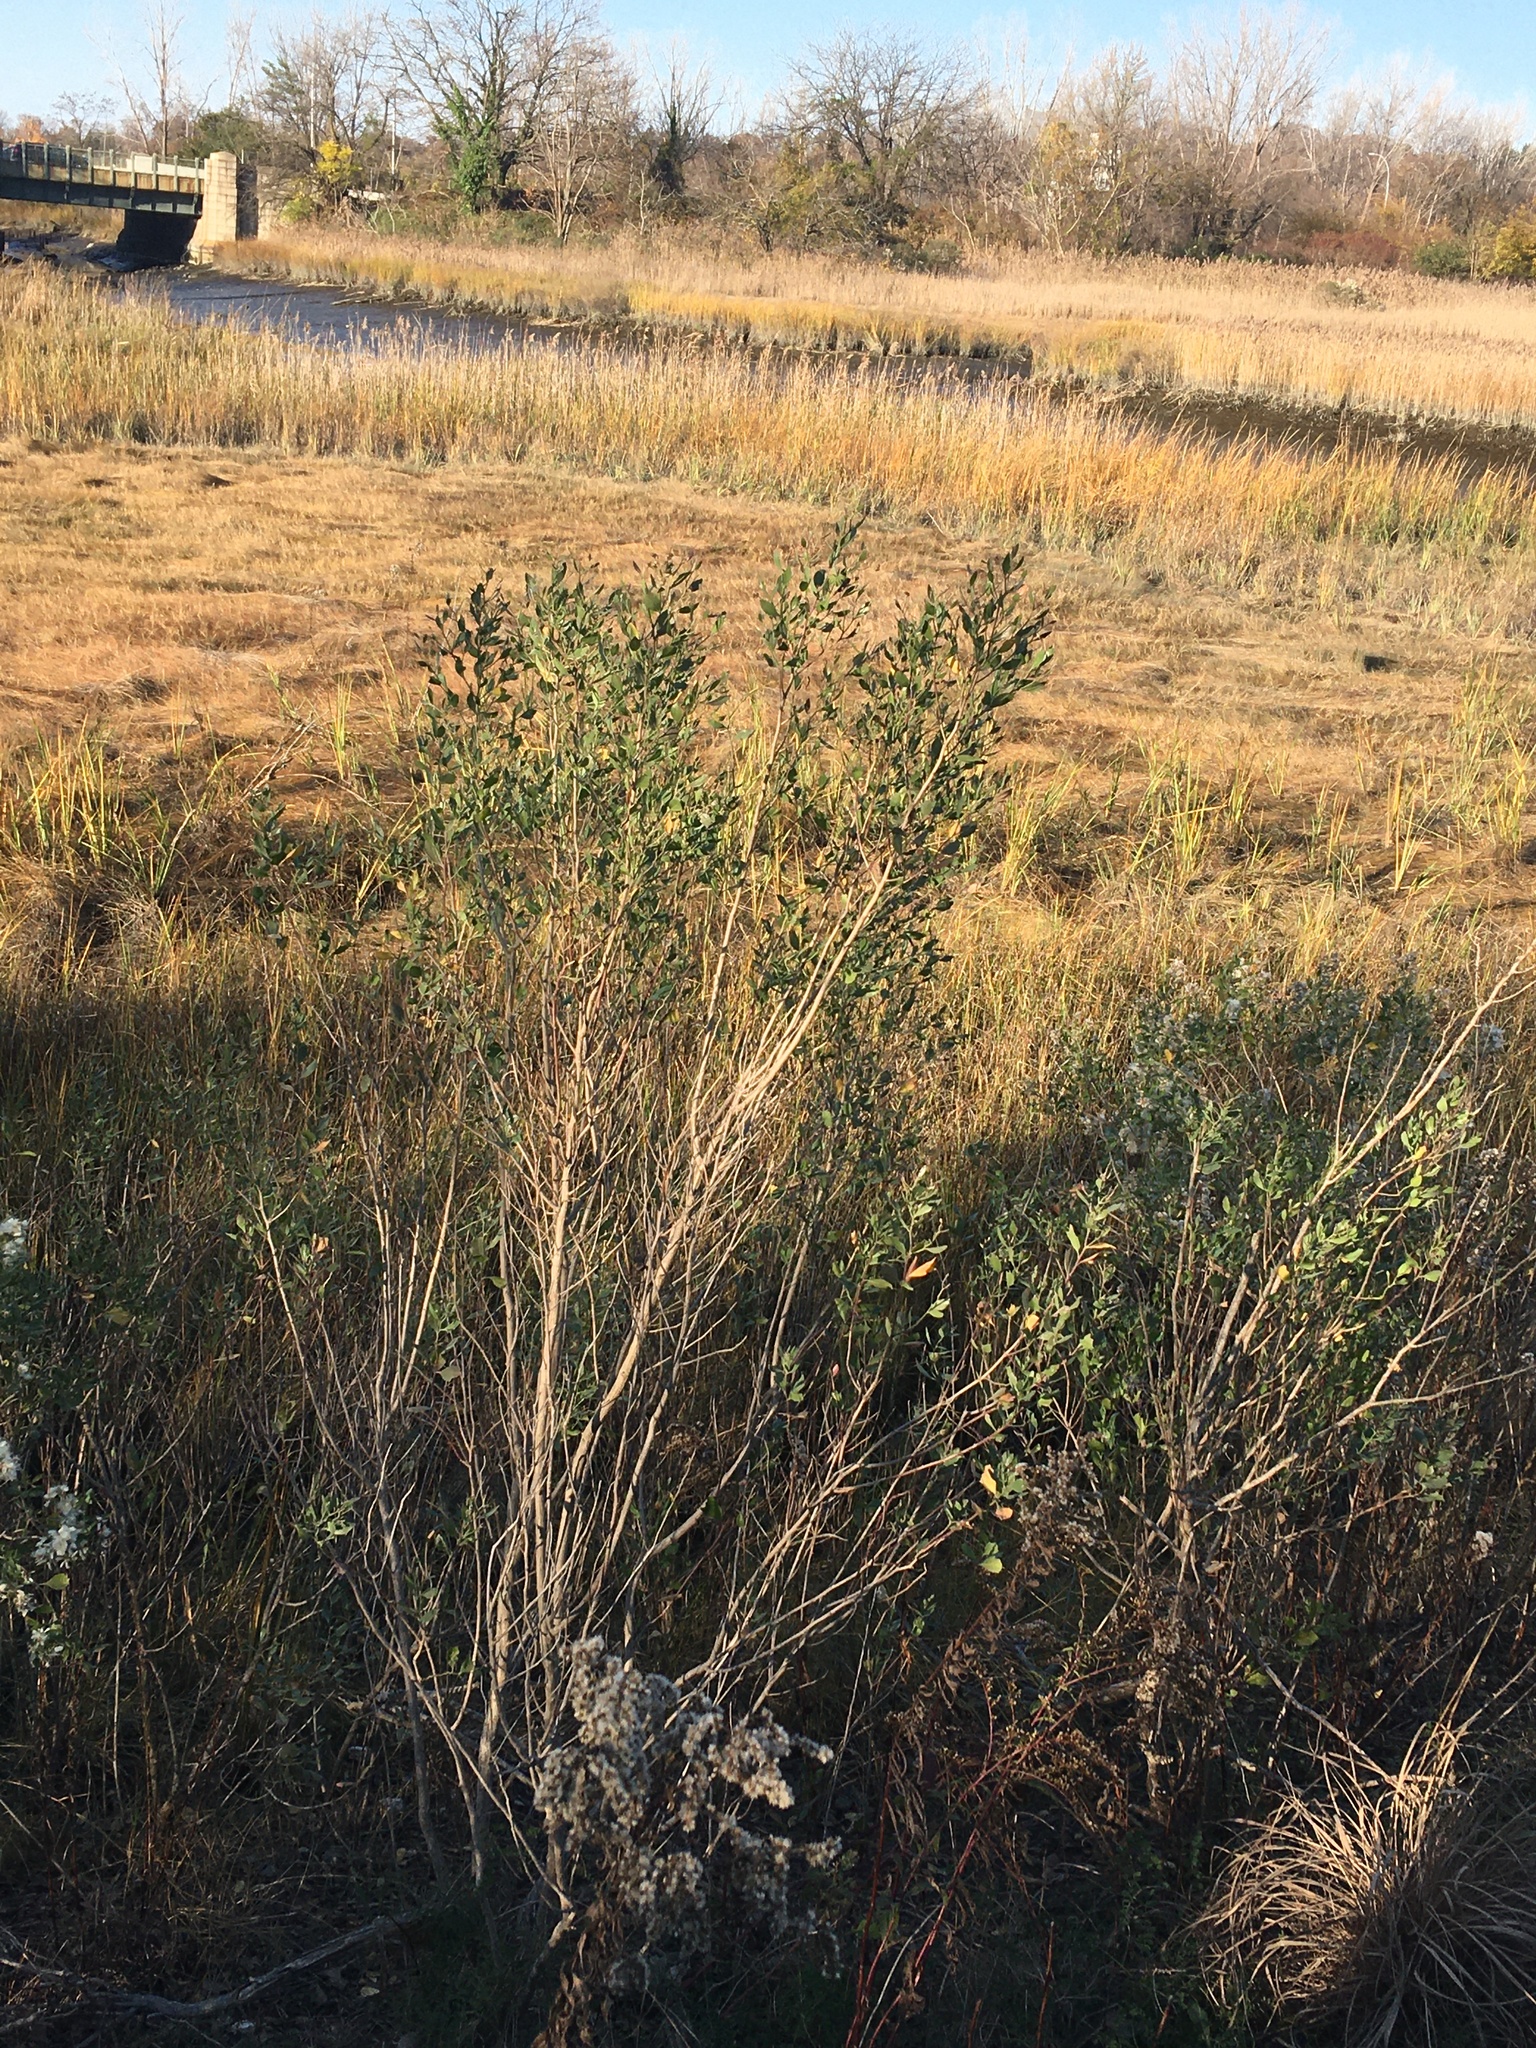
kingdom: Plantae
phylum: Tracheophyta
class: Magnoliopsida
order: Asterales
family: Asteraceae
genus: Baccharis
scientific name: Baccharis halimifolia
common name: Eastern baccharis
